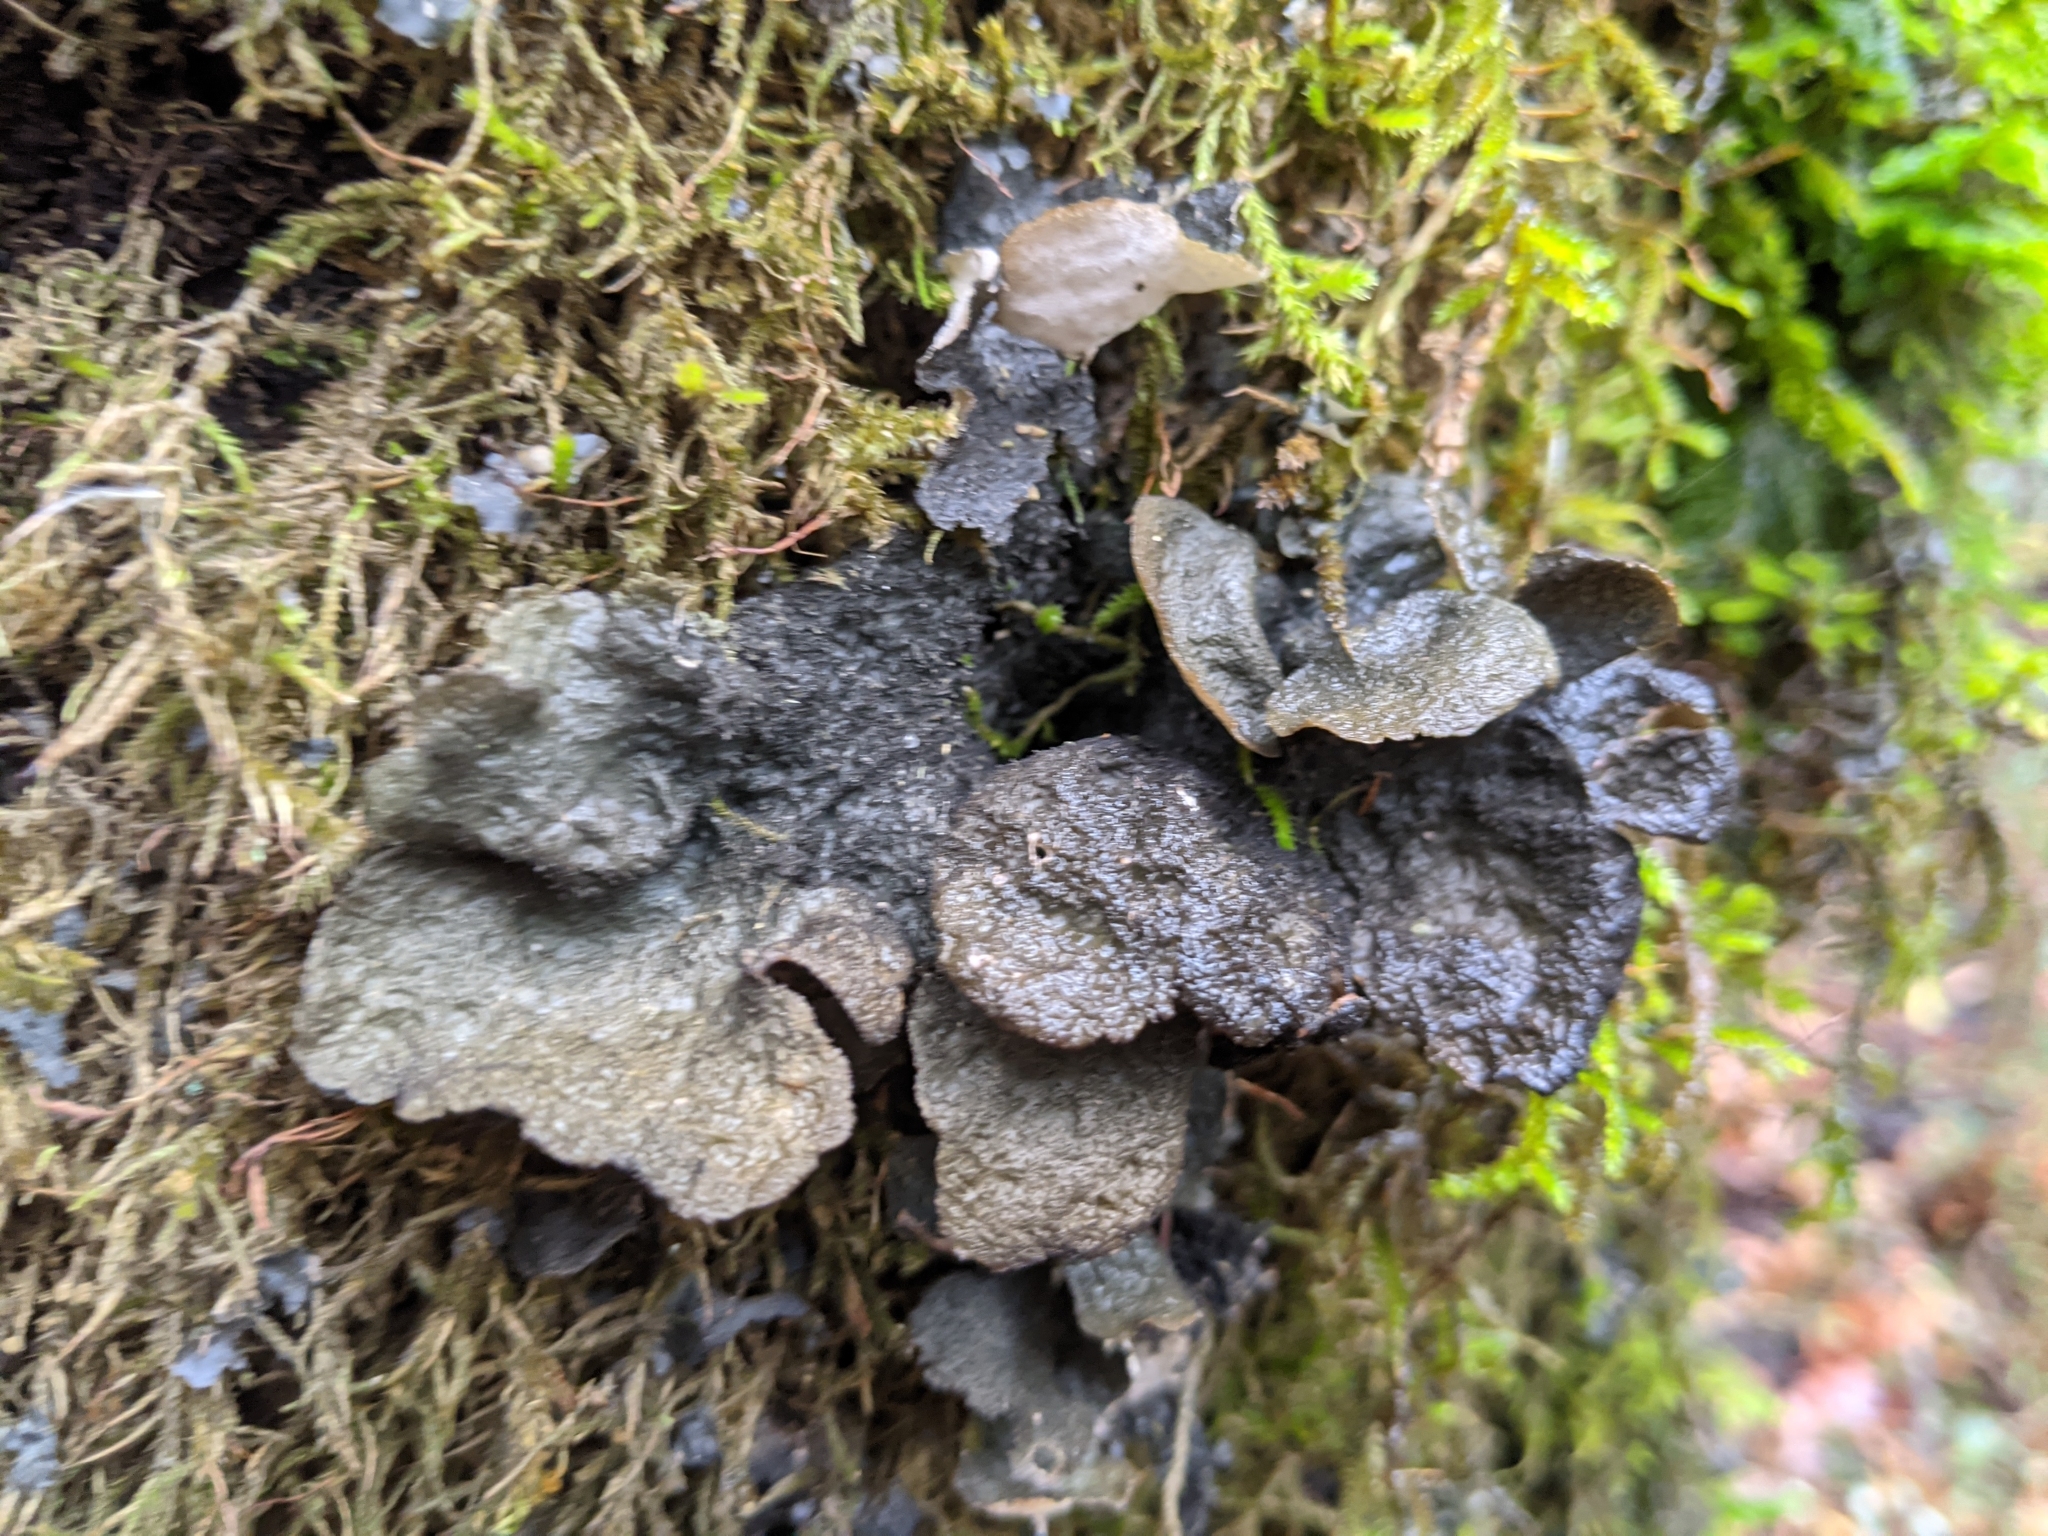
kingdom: Fungi
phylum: Ascomycota
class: Lecanoromycetes
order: Peltigerales
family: Lobariaceae
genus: Sticta
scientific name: Sticta fuliginosa
